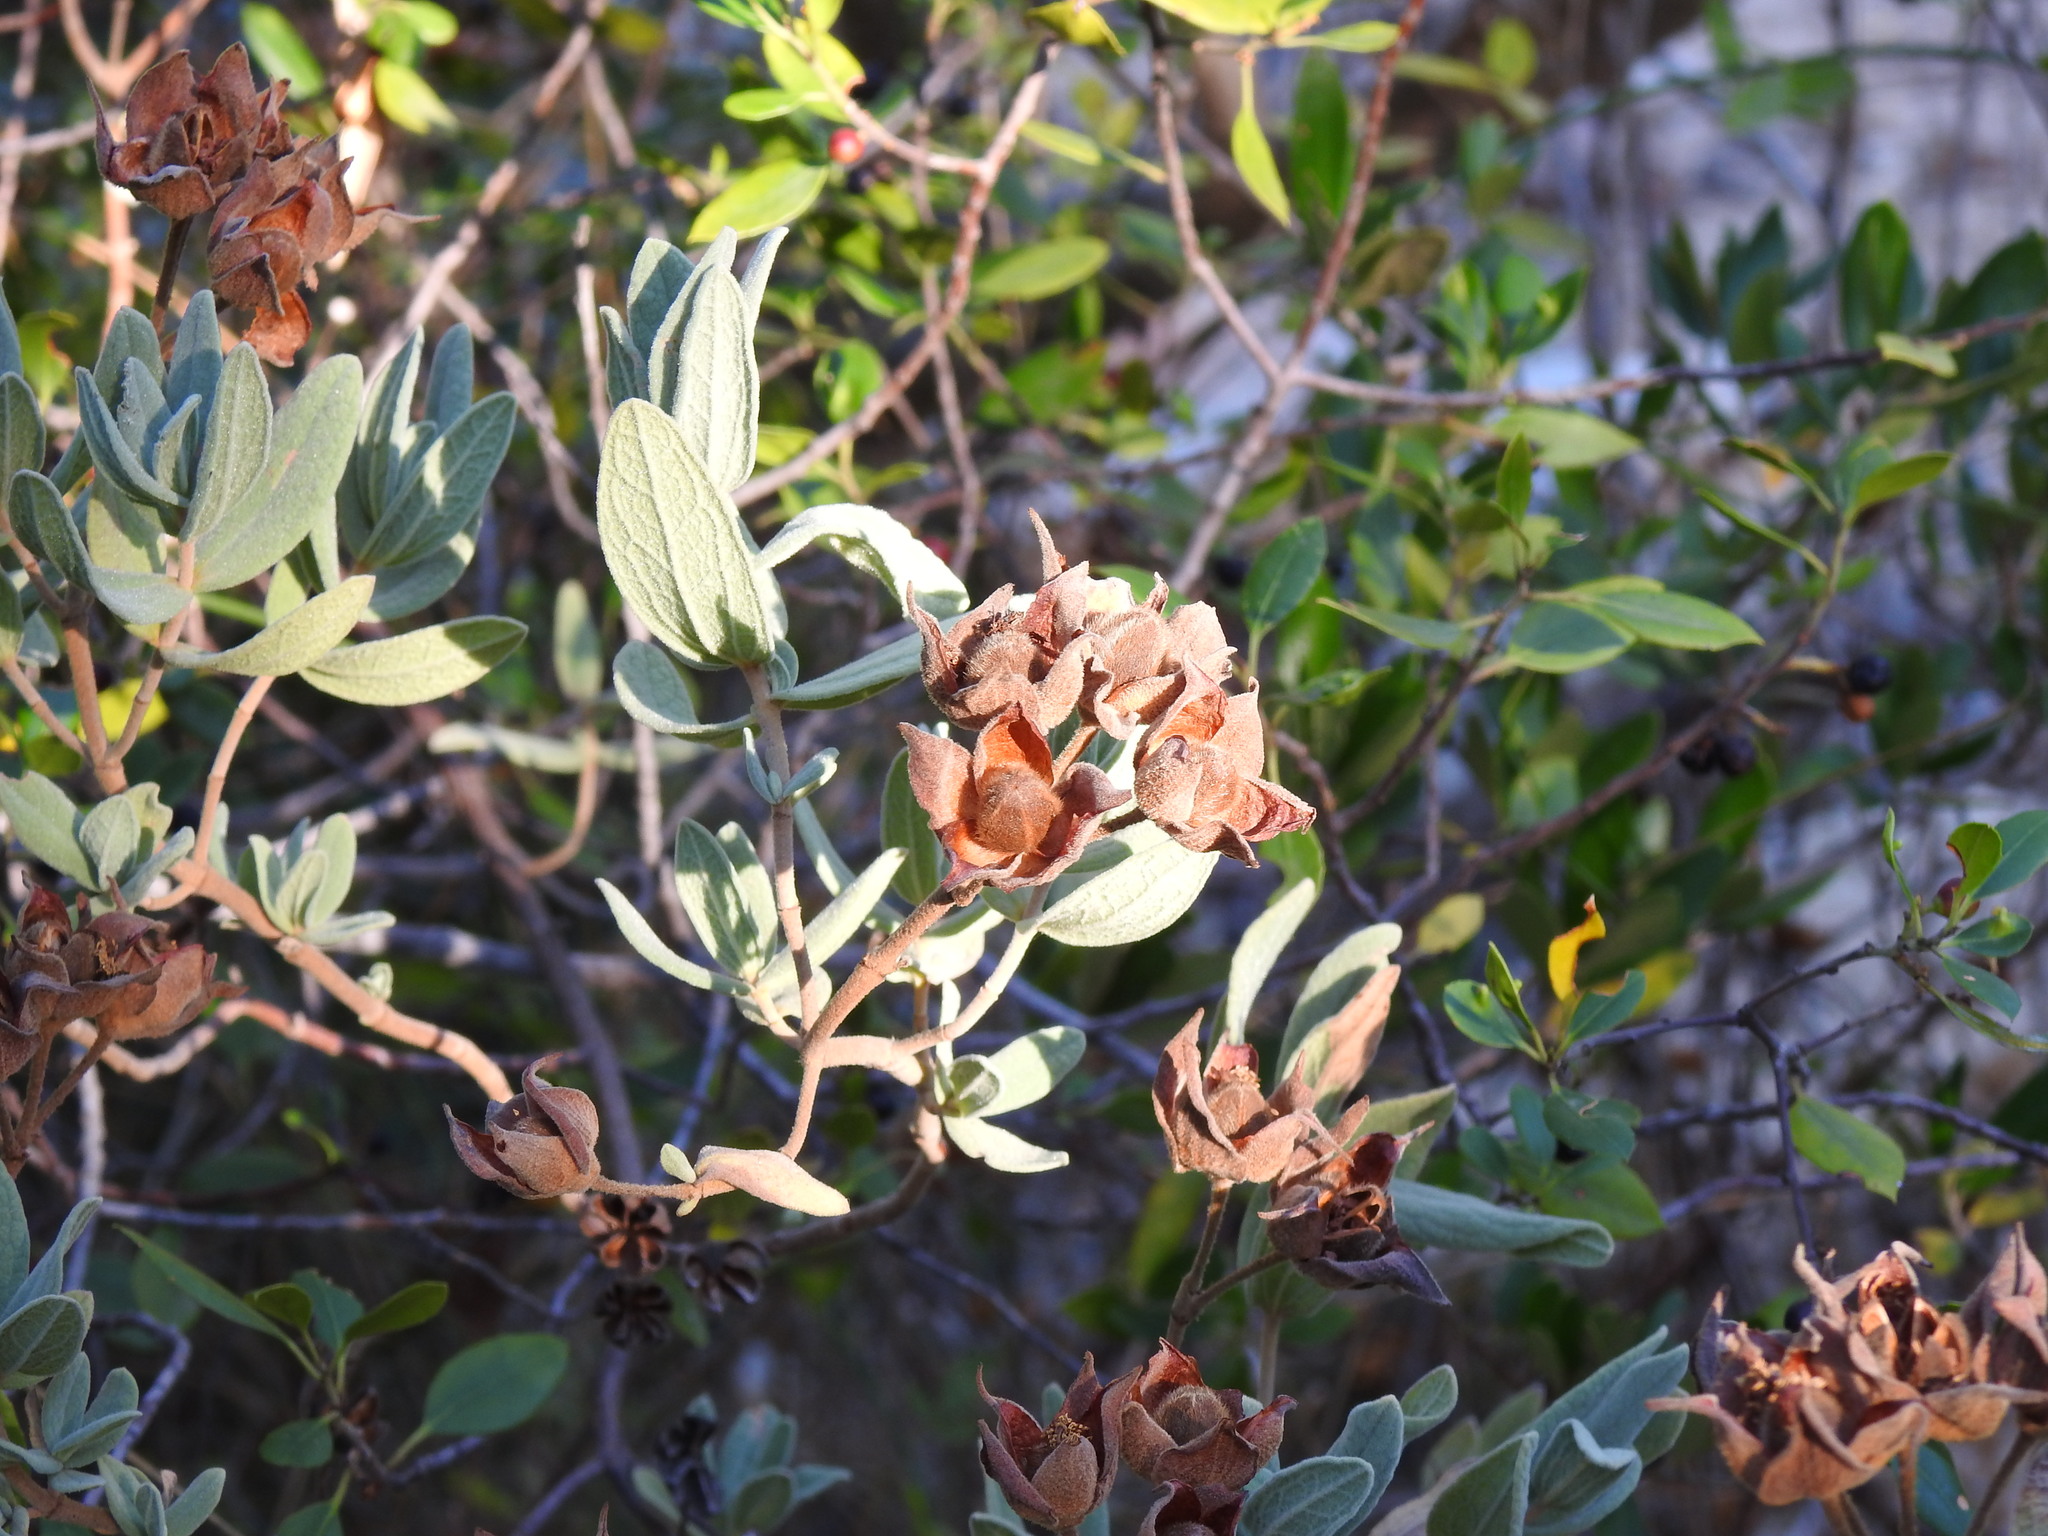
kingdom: Plantae
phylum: Tracheophyta
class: Magnoliopsida
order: Malvales
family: Cistaceae
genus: Cistus
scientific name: Cistus albidus
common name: White-leaf rock-rose
